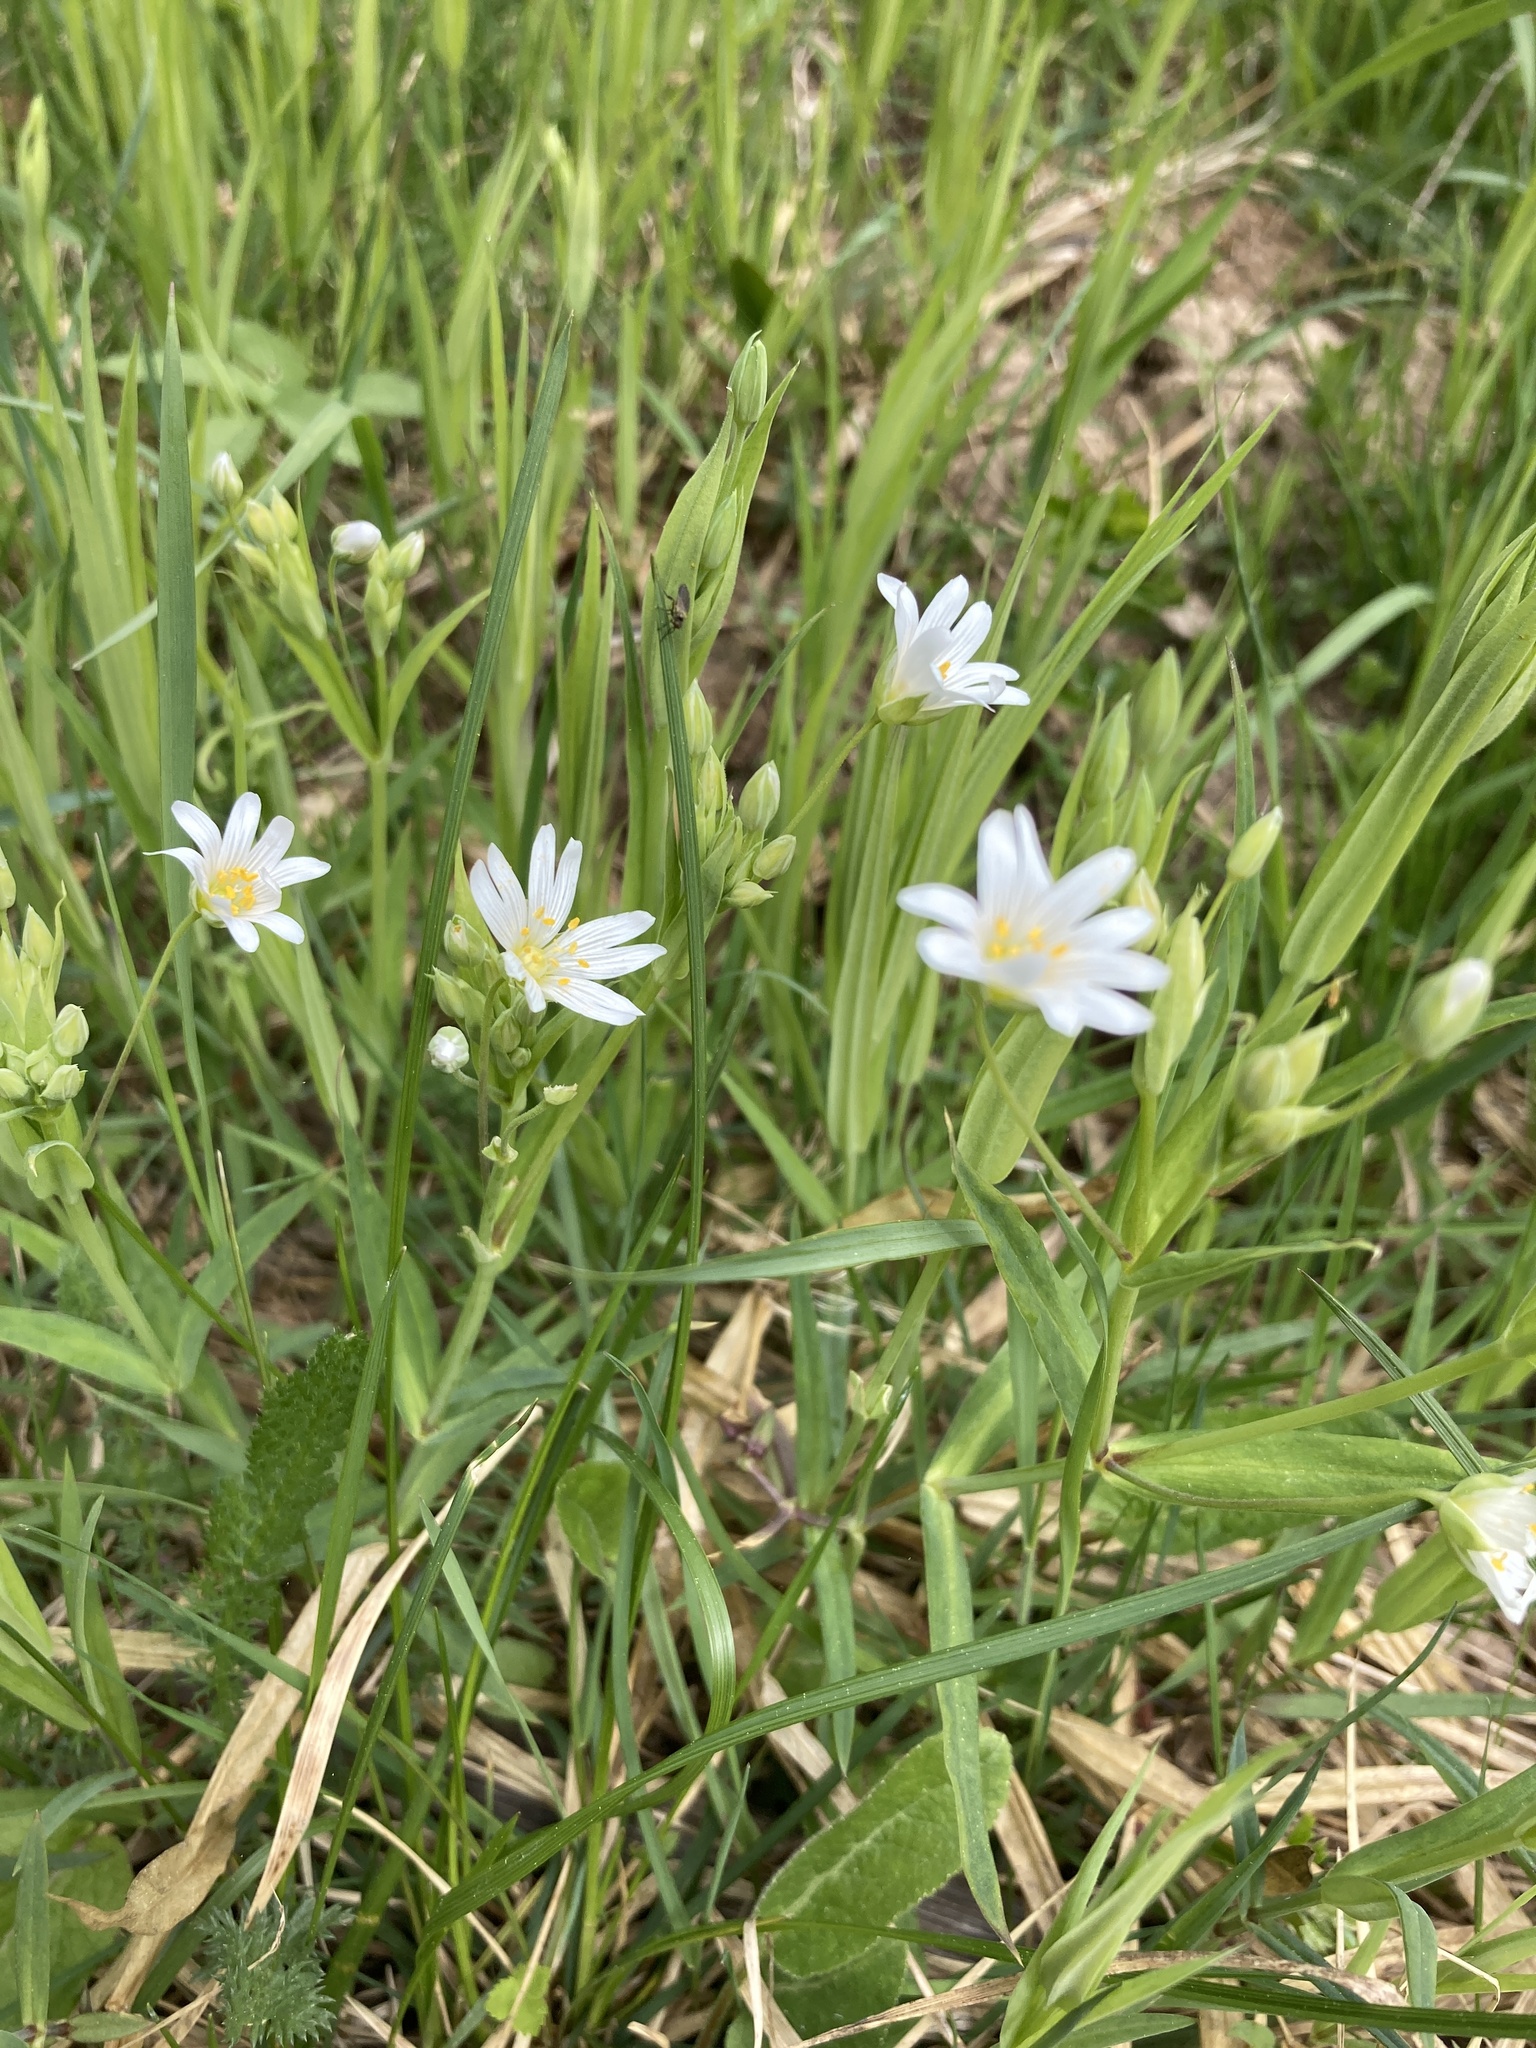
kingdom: Plantae
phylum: Tracheophyta
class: Magnoliopsida
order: Caryophyllales
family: Caryophyllaceae
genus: Rabelera
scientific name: Rabelera holostea
